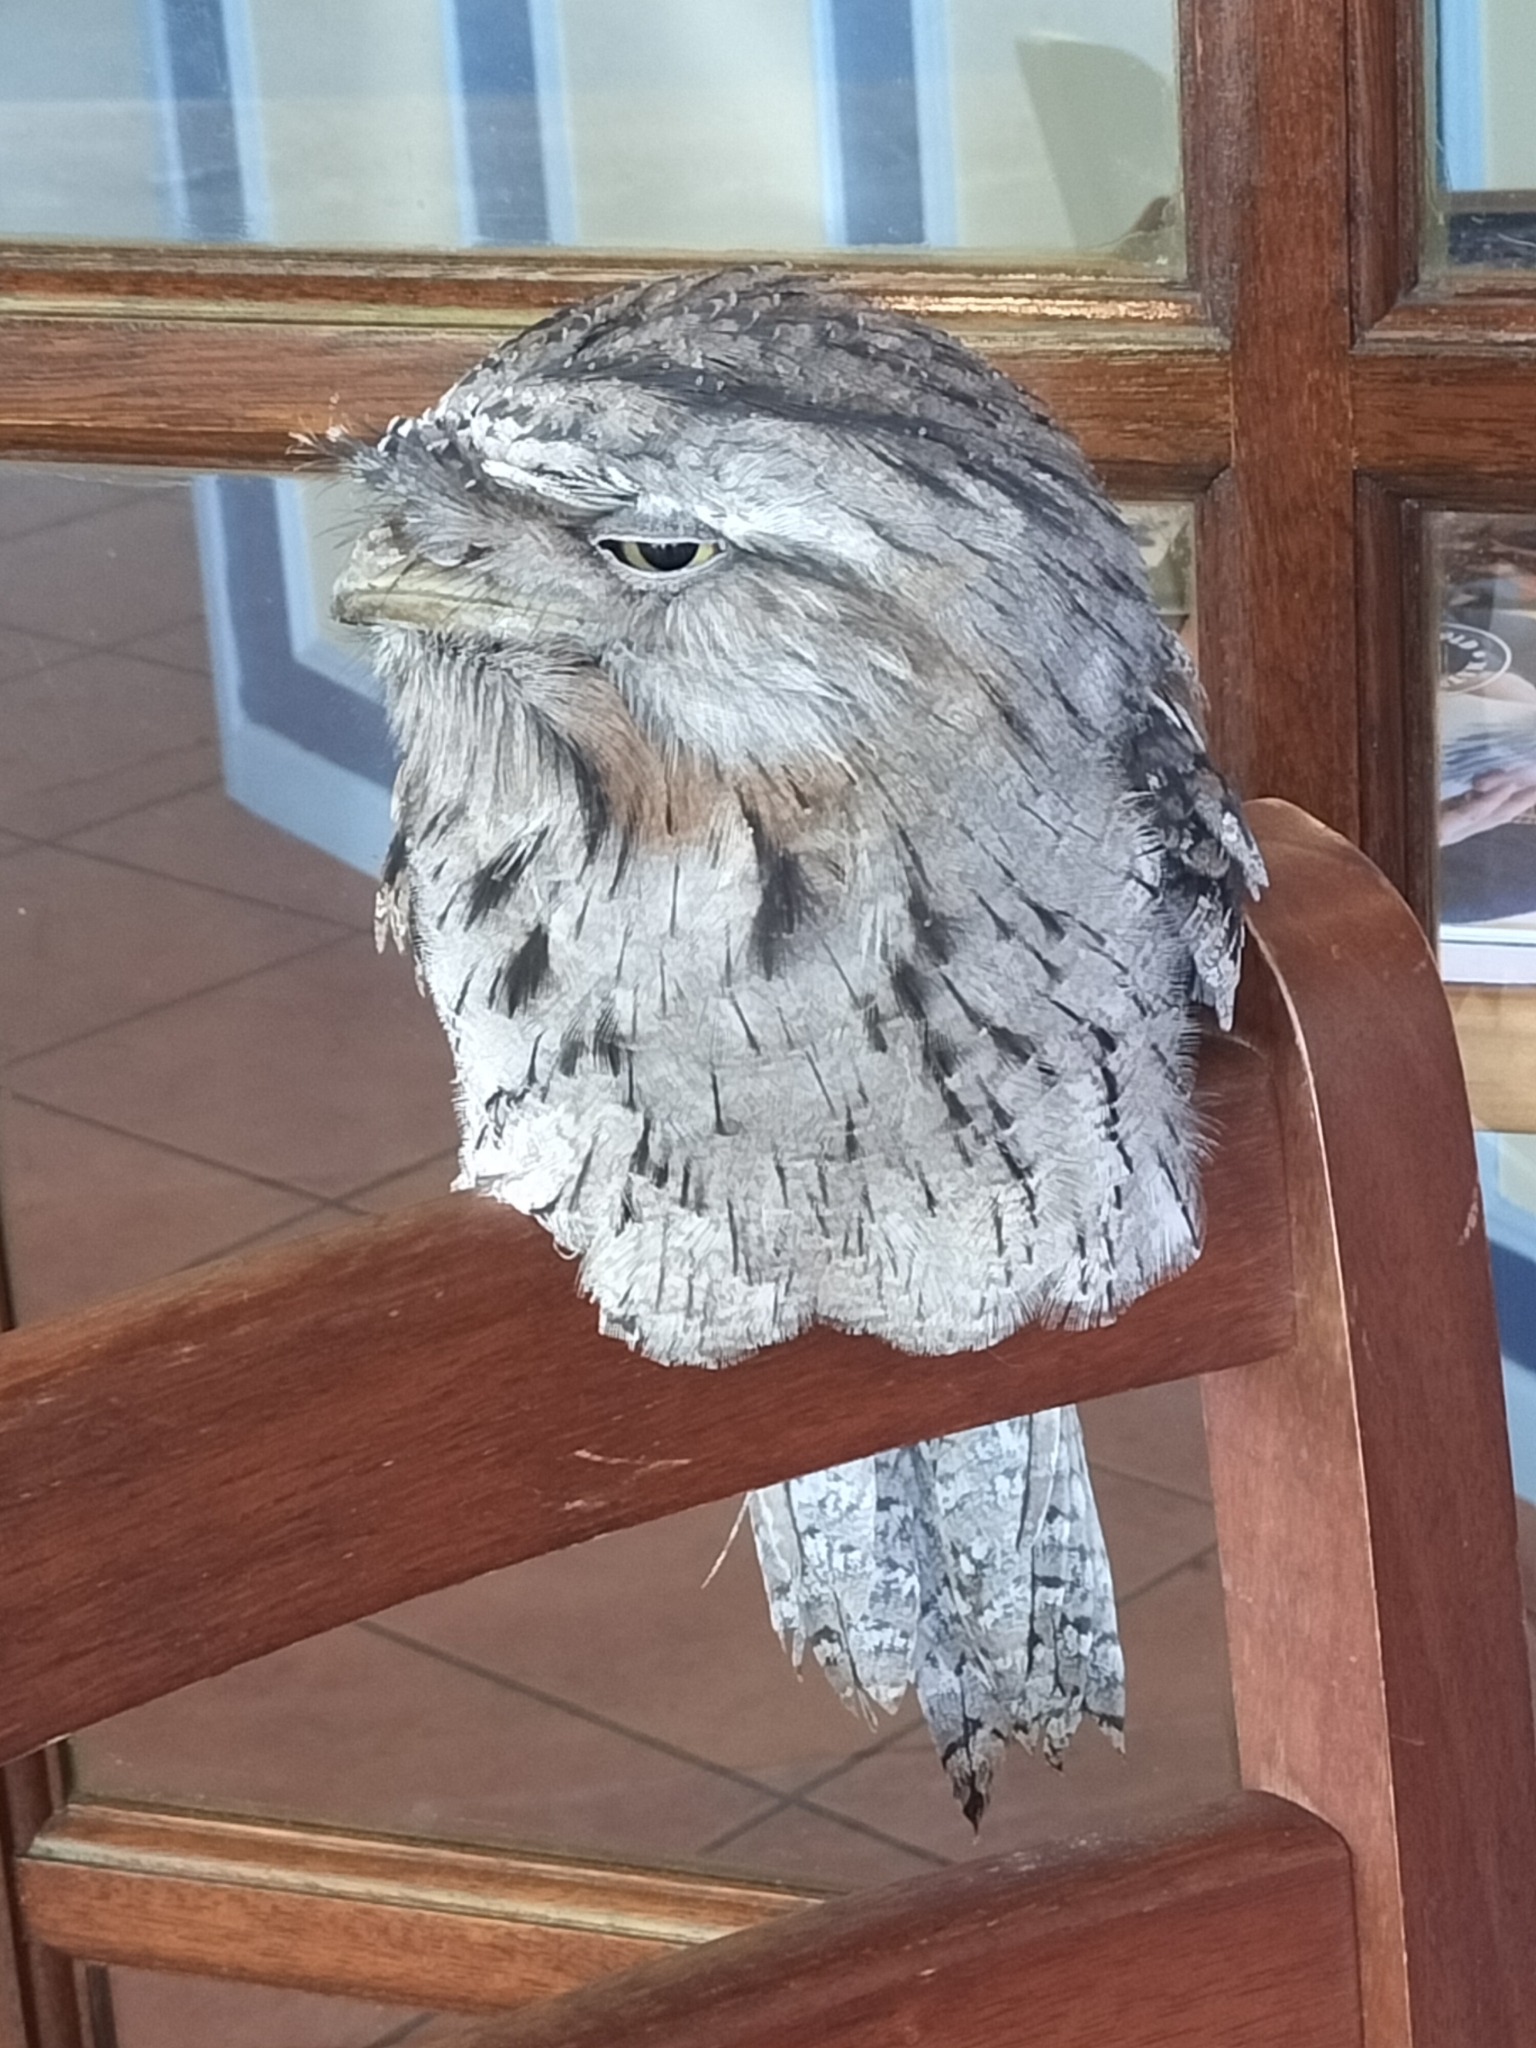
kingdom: Animalia
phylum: Chordata
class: Aves
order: Caprimulgiformes
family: Podargidae
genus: Podargus
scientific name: Podargus strigoides
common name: Tawny frogmouth
